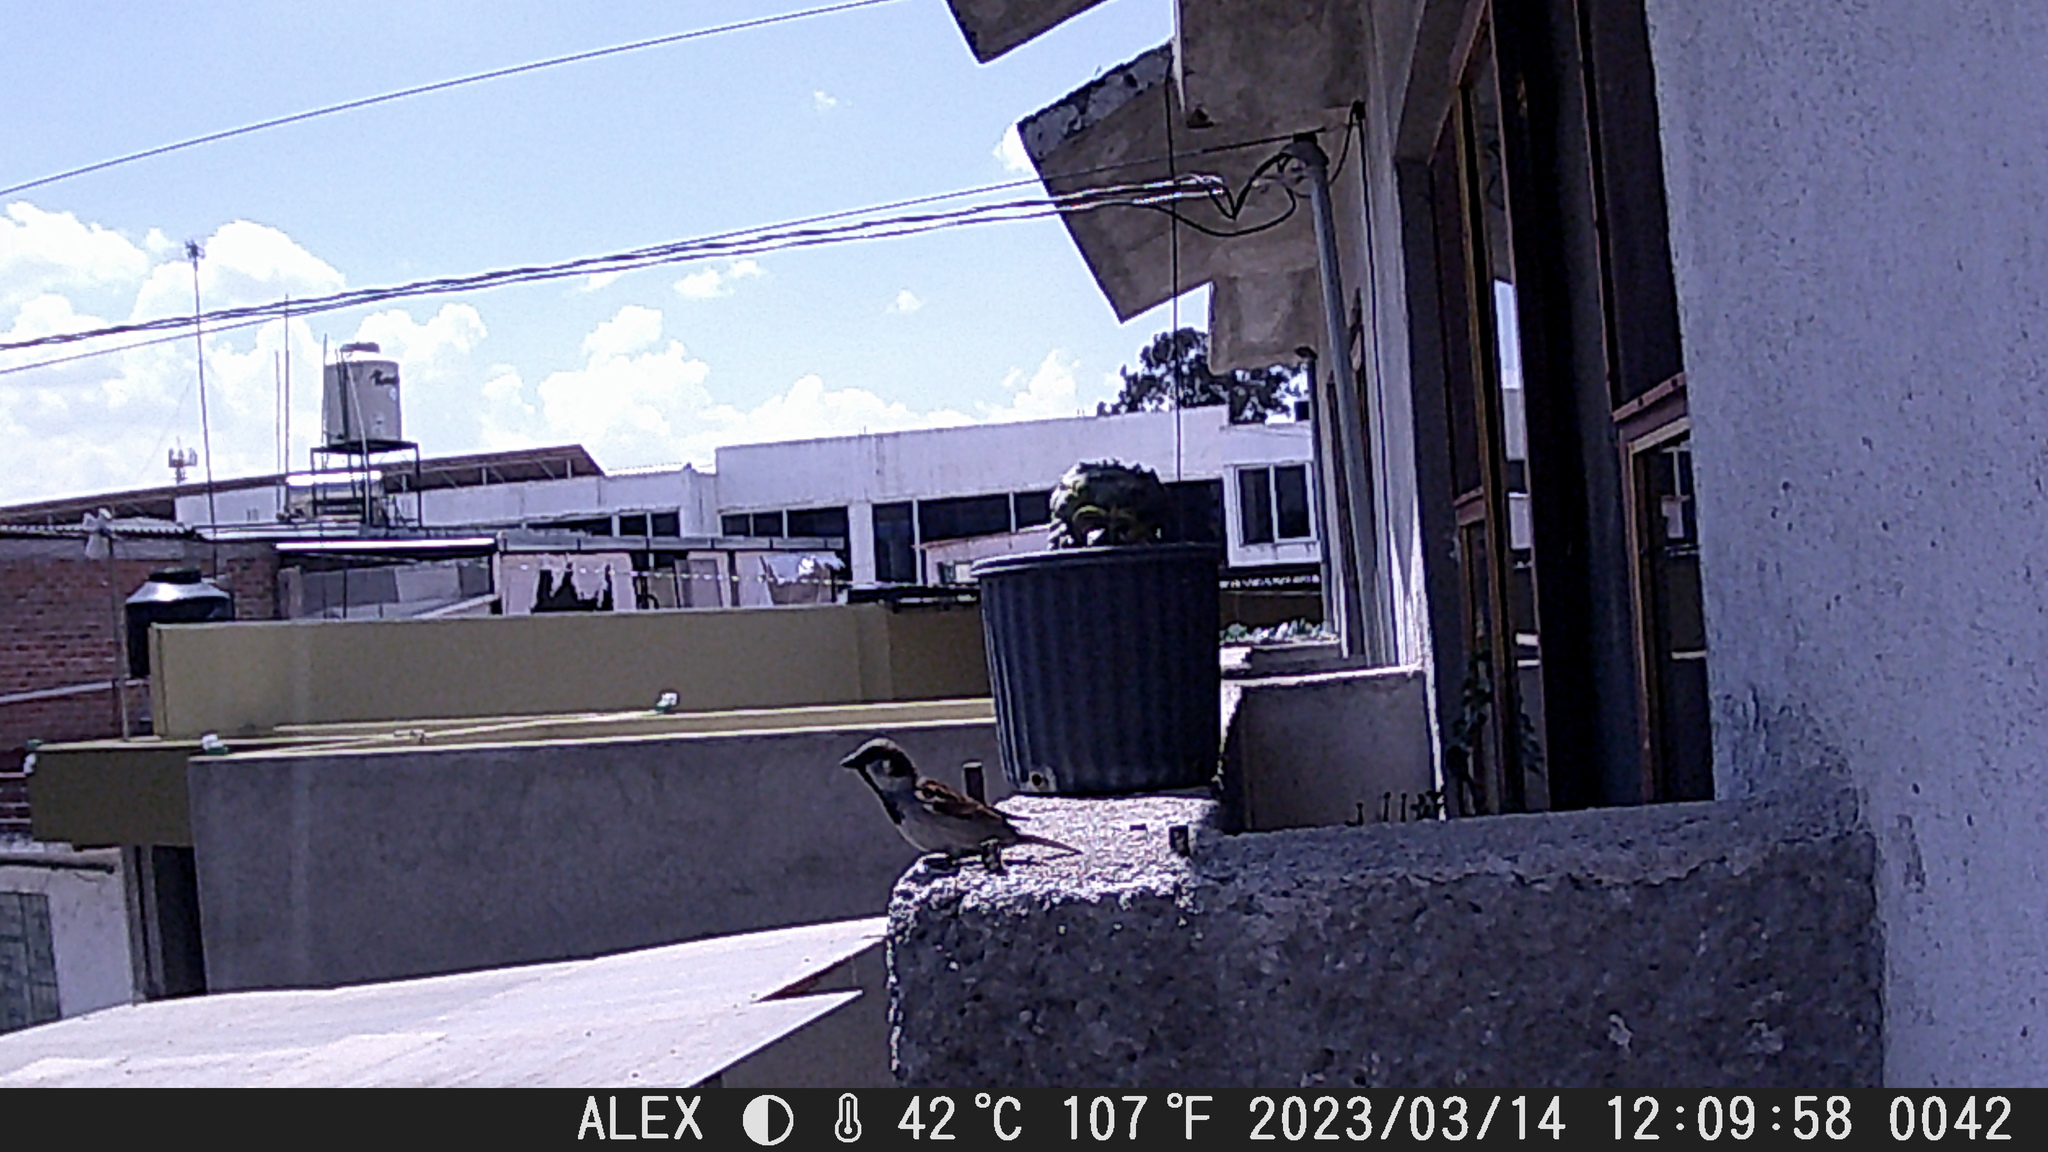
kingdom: Animalia
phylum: Chordata
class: Aves
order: Passeriformes
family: Passeridae
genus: Passer
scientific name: Passer domesticus
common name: House sparrow
